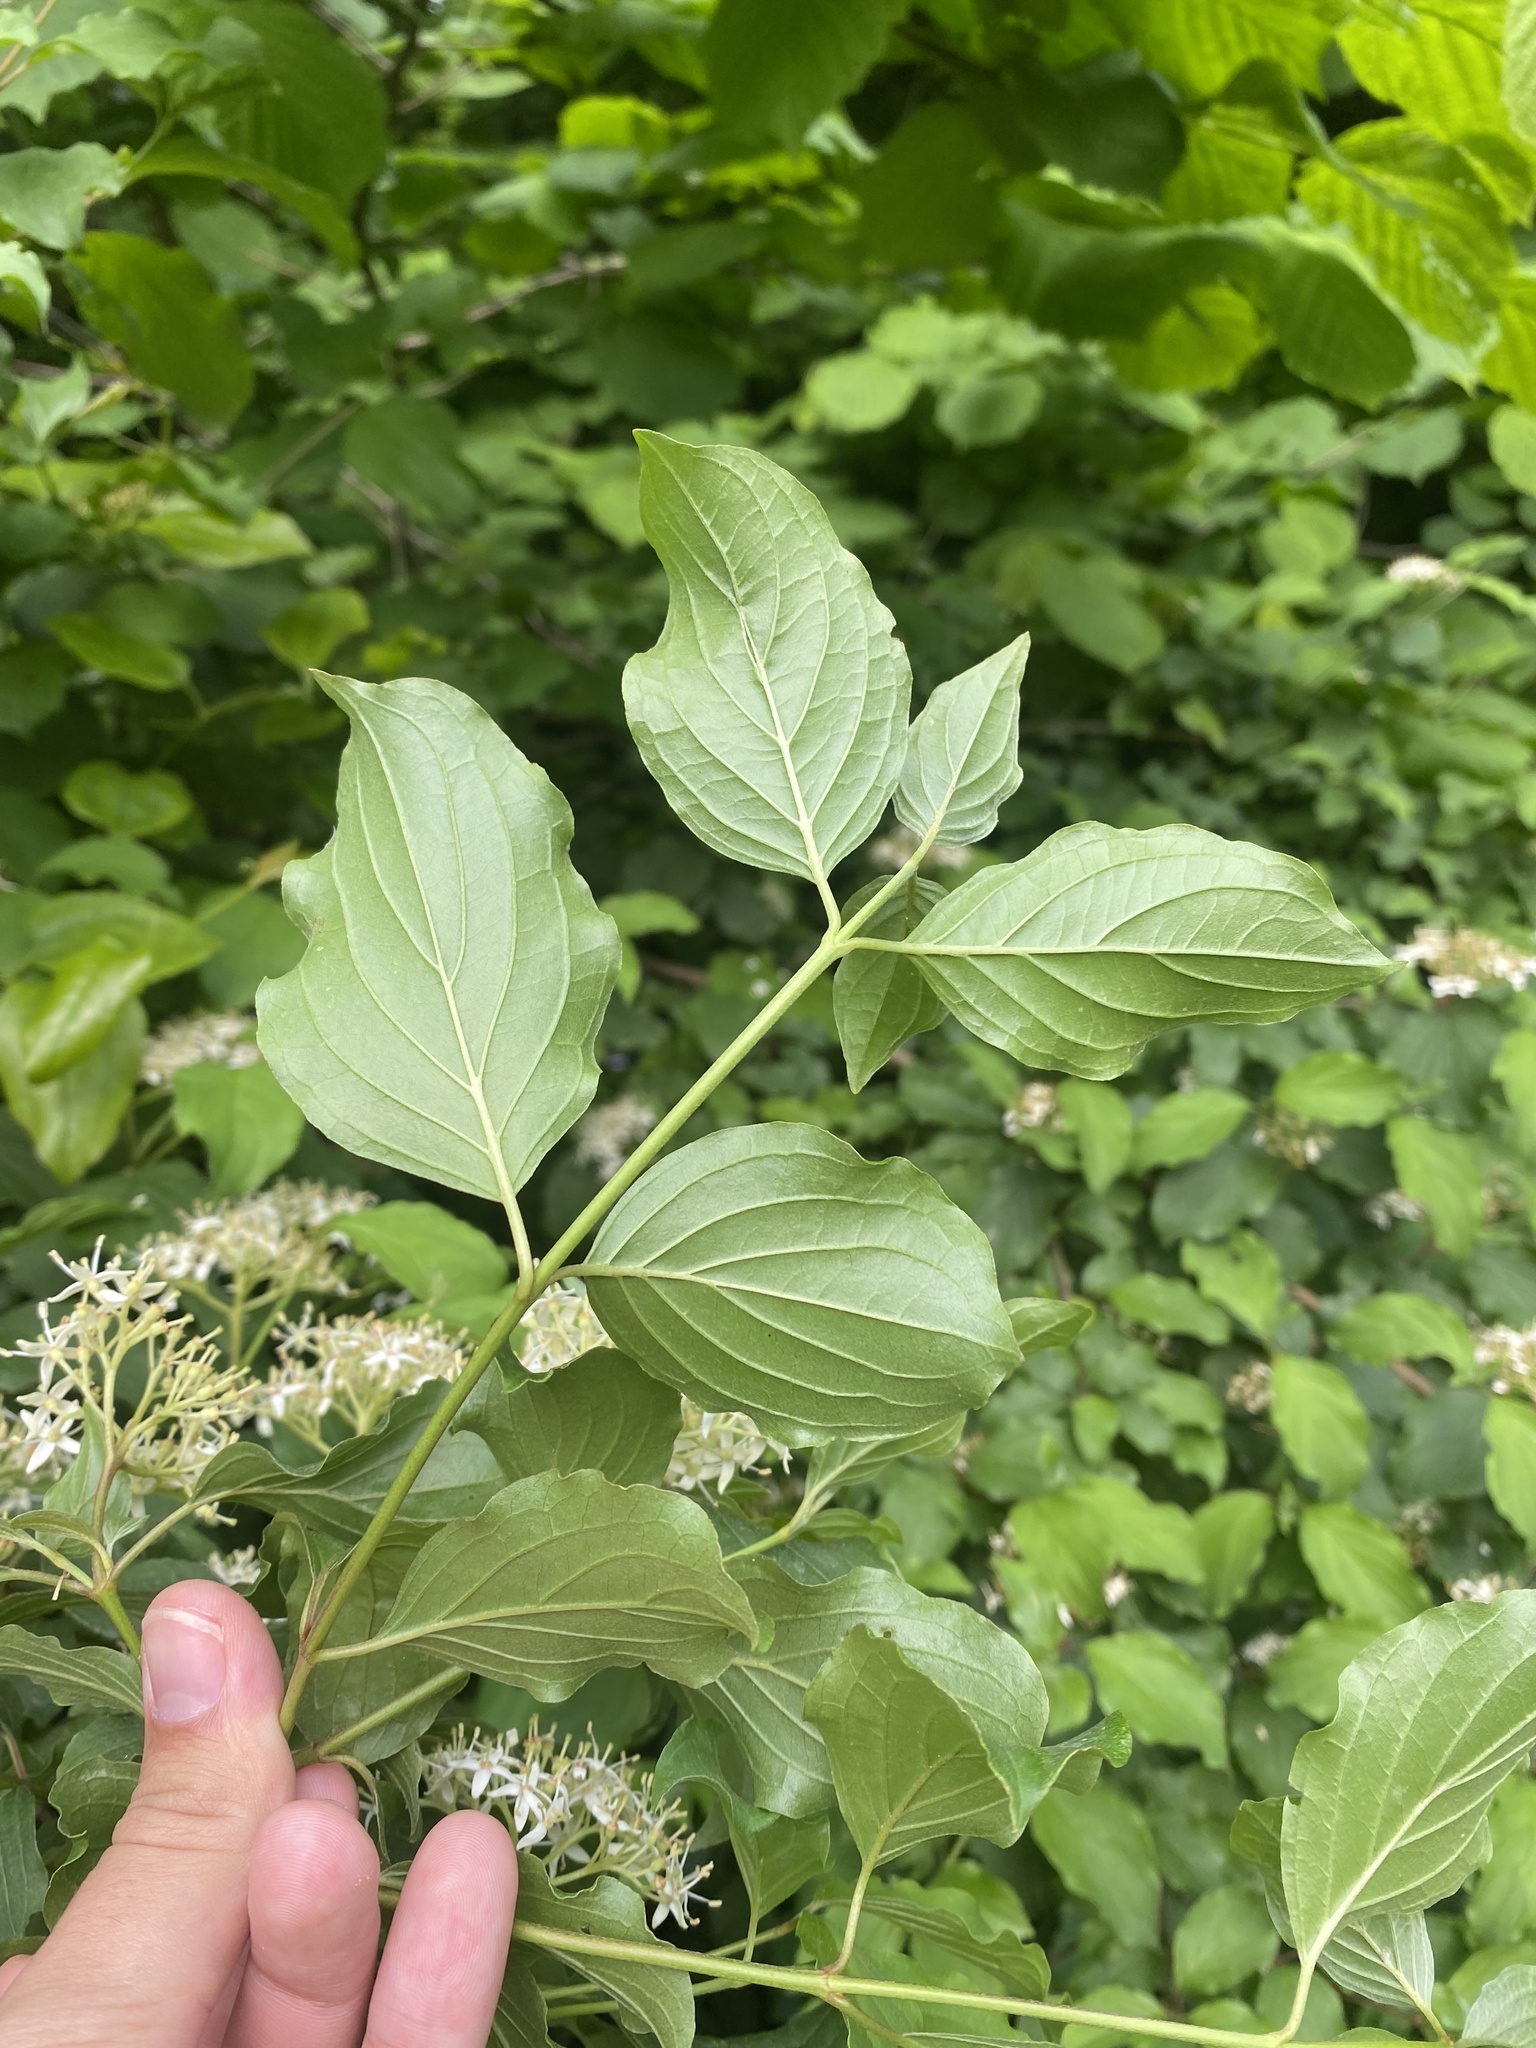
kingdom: Plantae
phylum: Tracheophyta
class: Magnoliopsida
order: Cornales
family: Cornaceae
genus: Cornus
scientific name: Cornus sanguinea
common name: Dogwood
